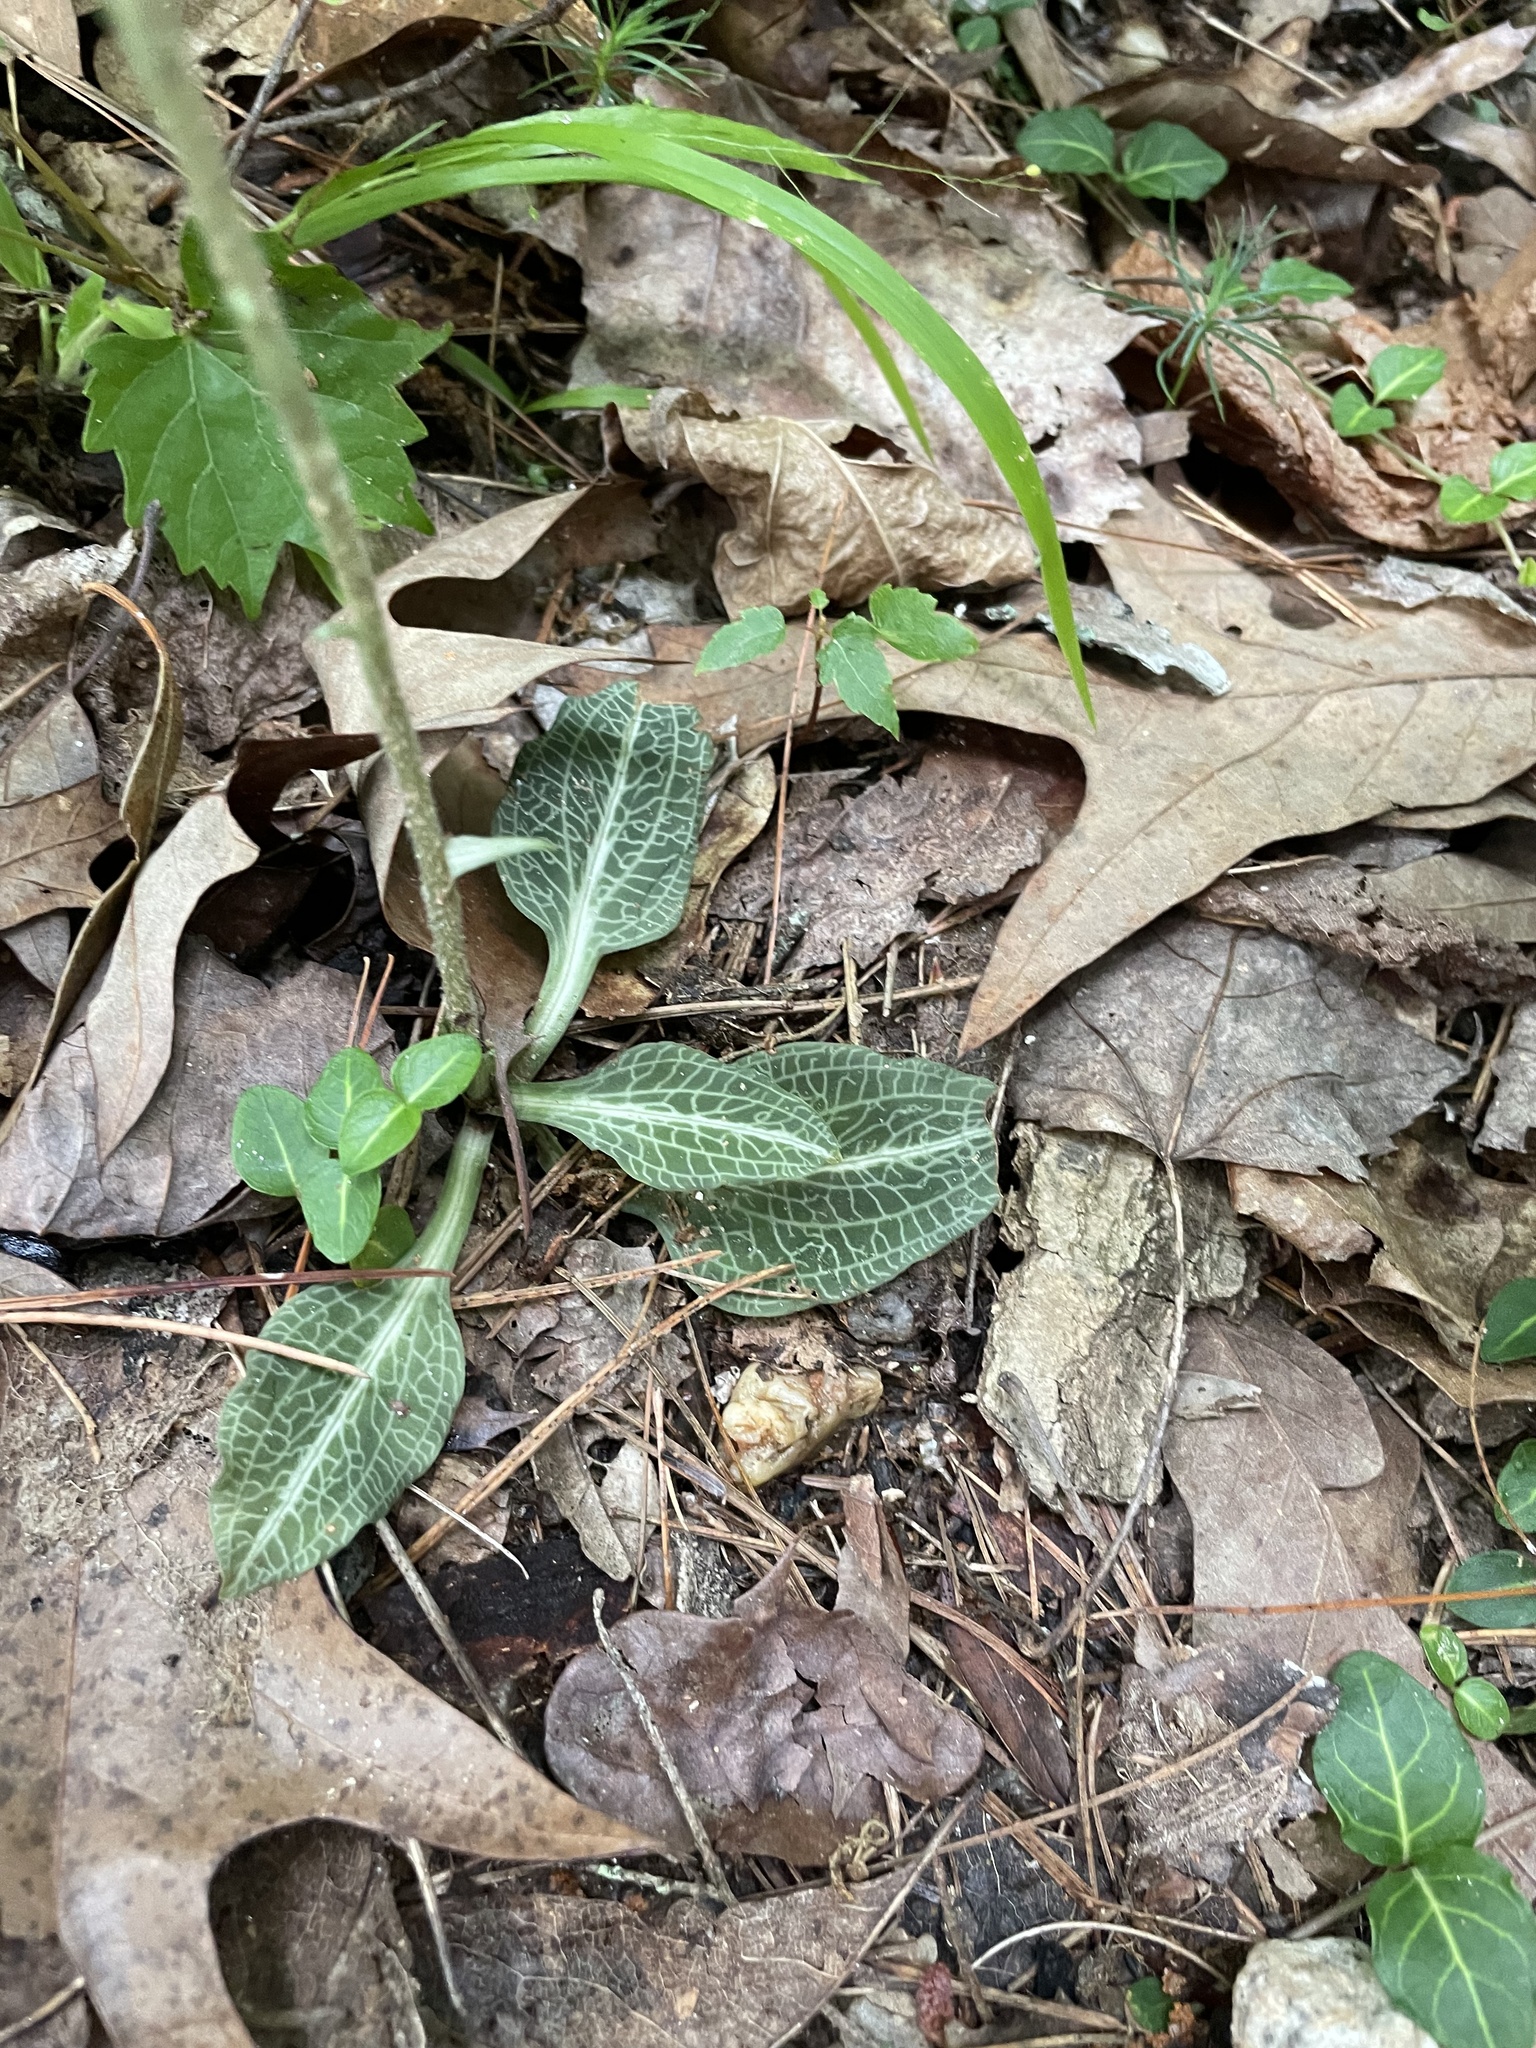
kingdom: Plantae
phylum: Tracheophyta
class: Liliopsida
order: Asparagales
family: Orchidaceae
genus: Goodyera
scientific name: Goodyera pubescens
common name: Downy rattlesnake-plantain
